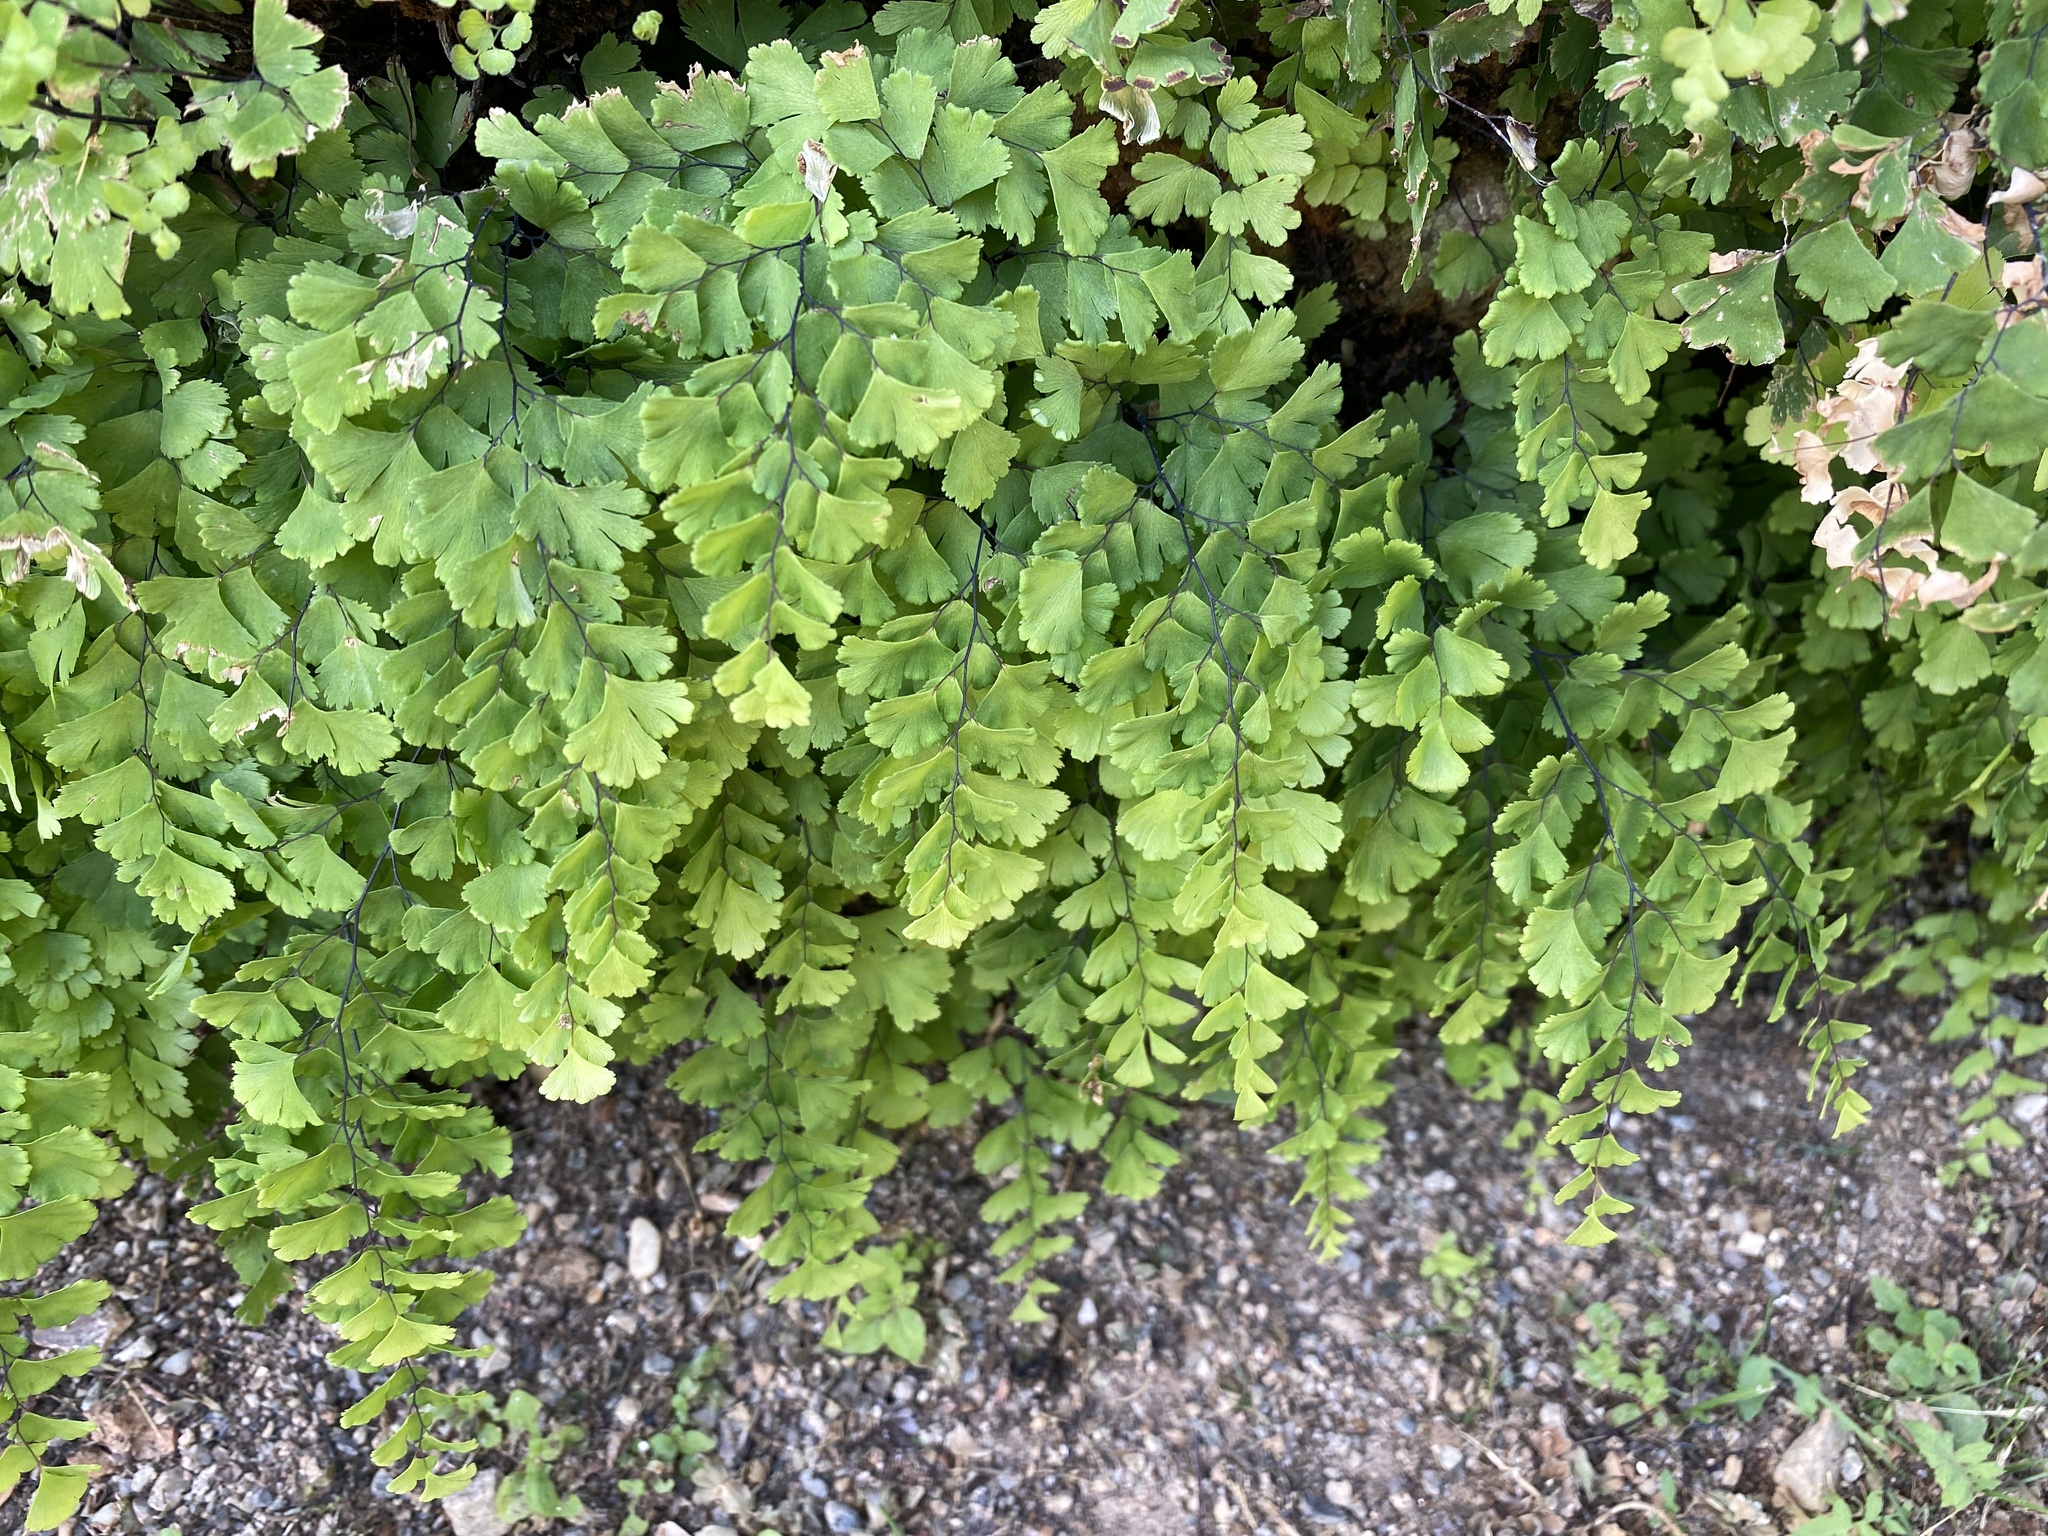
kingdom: Plantae
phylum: Tracheophyta
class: Polypodiopsida
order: Polypodiales
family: Pteridaceae
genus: Adiantum
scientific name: Adiantum capillus-veneris
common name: Maidenhair fern
